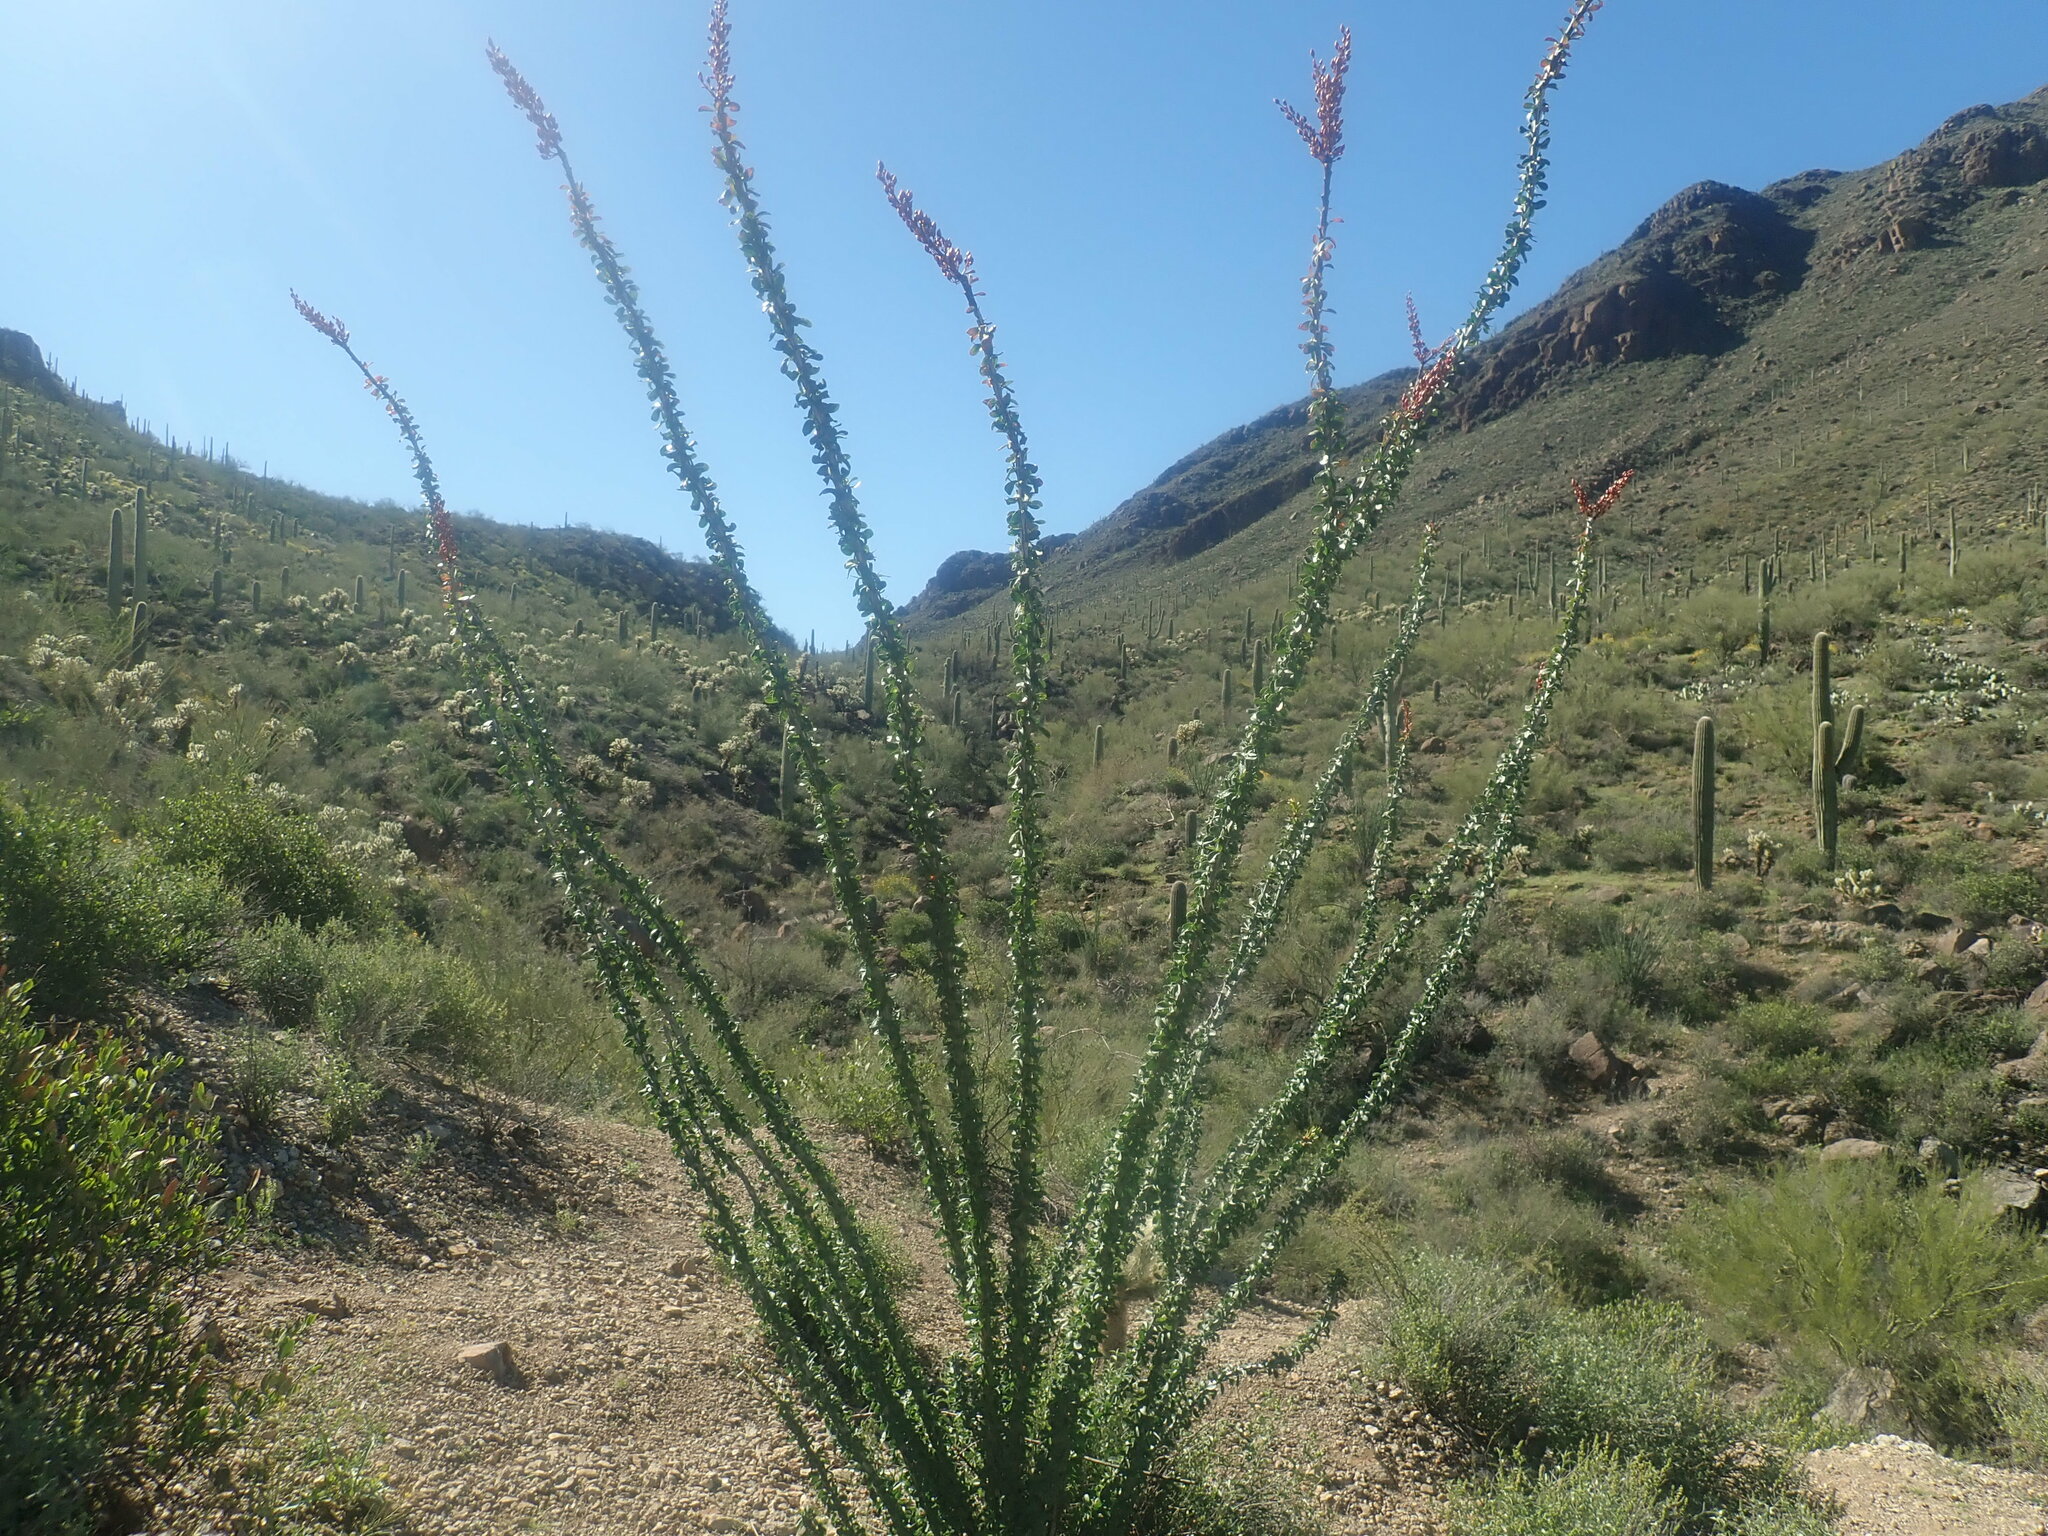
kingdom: Plantae
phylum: Tracheophyta
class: Magnoliopsida
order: Ericales
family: Fouquieriaceae
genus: Fouquieria
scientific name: Fouquieria splendens
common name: Vine-cactus
